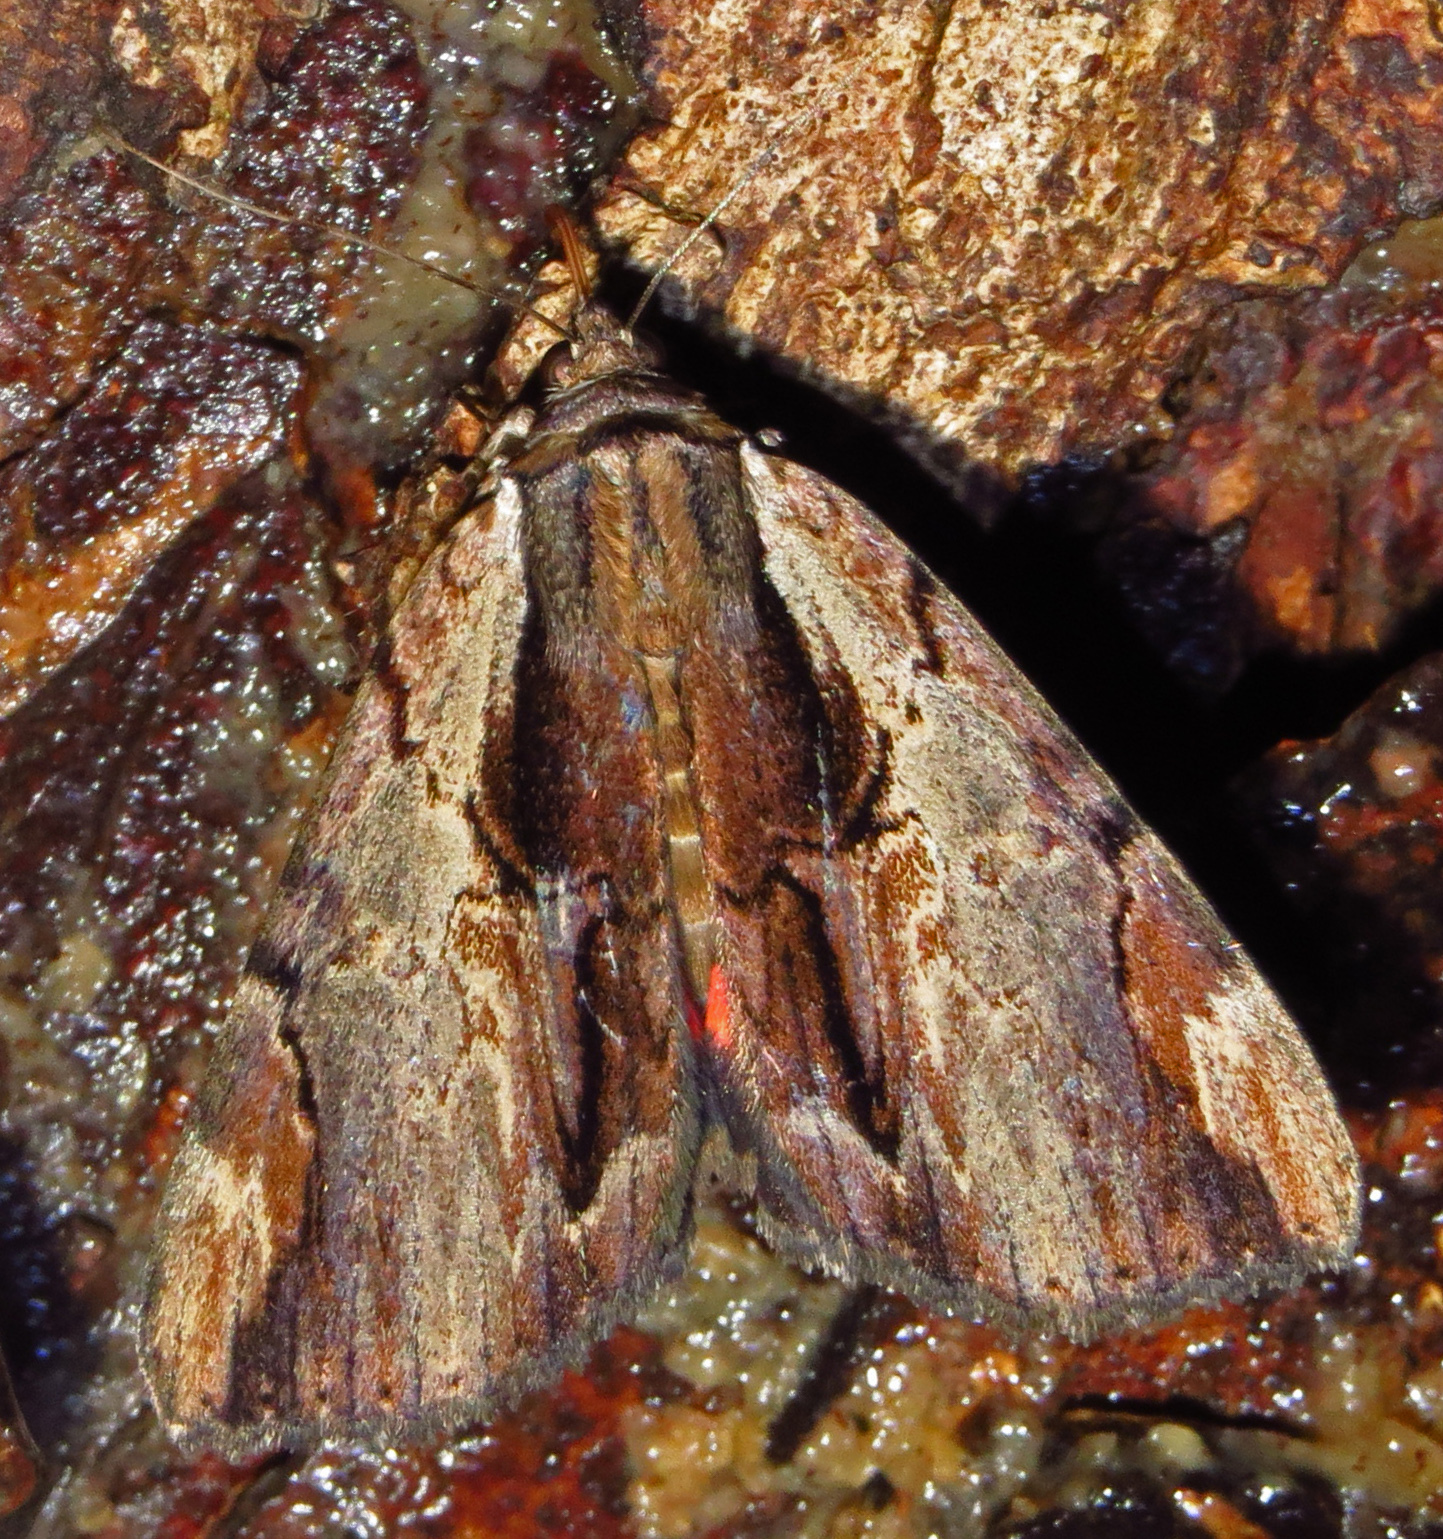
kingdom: Animalia
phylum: Arthropoda
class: Insecta
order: Lepidoptera
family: Erebidae
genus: Catocala
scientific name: Catocala ultronia
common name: Ultronia underwing
